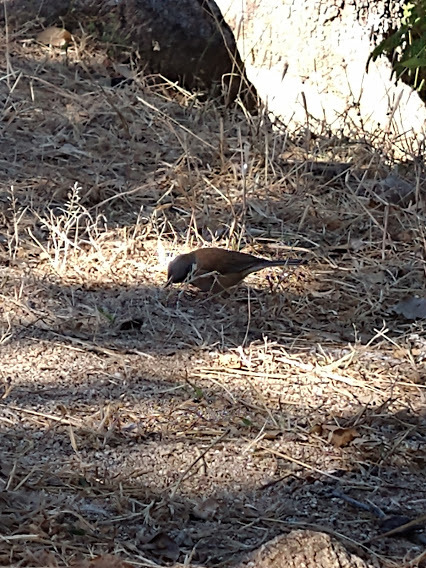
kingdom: Animalia
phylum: Chordata
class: Aves
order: Passeriformes
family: Passerellidae
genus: Junco
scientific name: Junco bairdi
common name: Baird's junco
